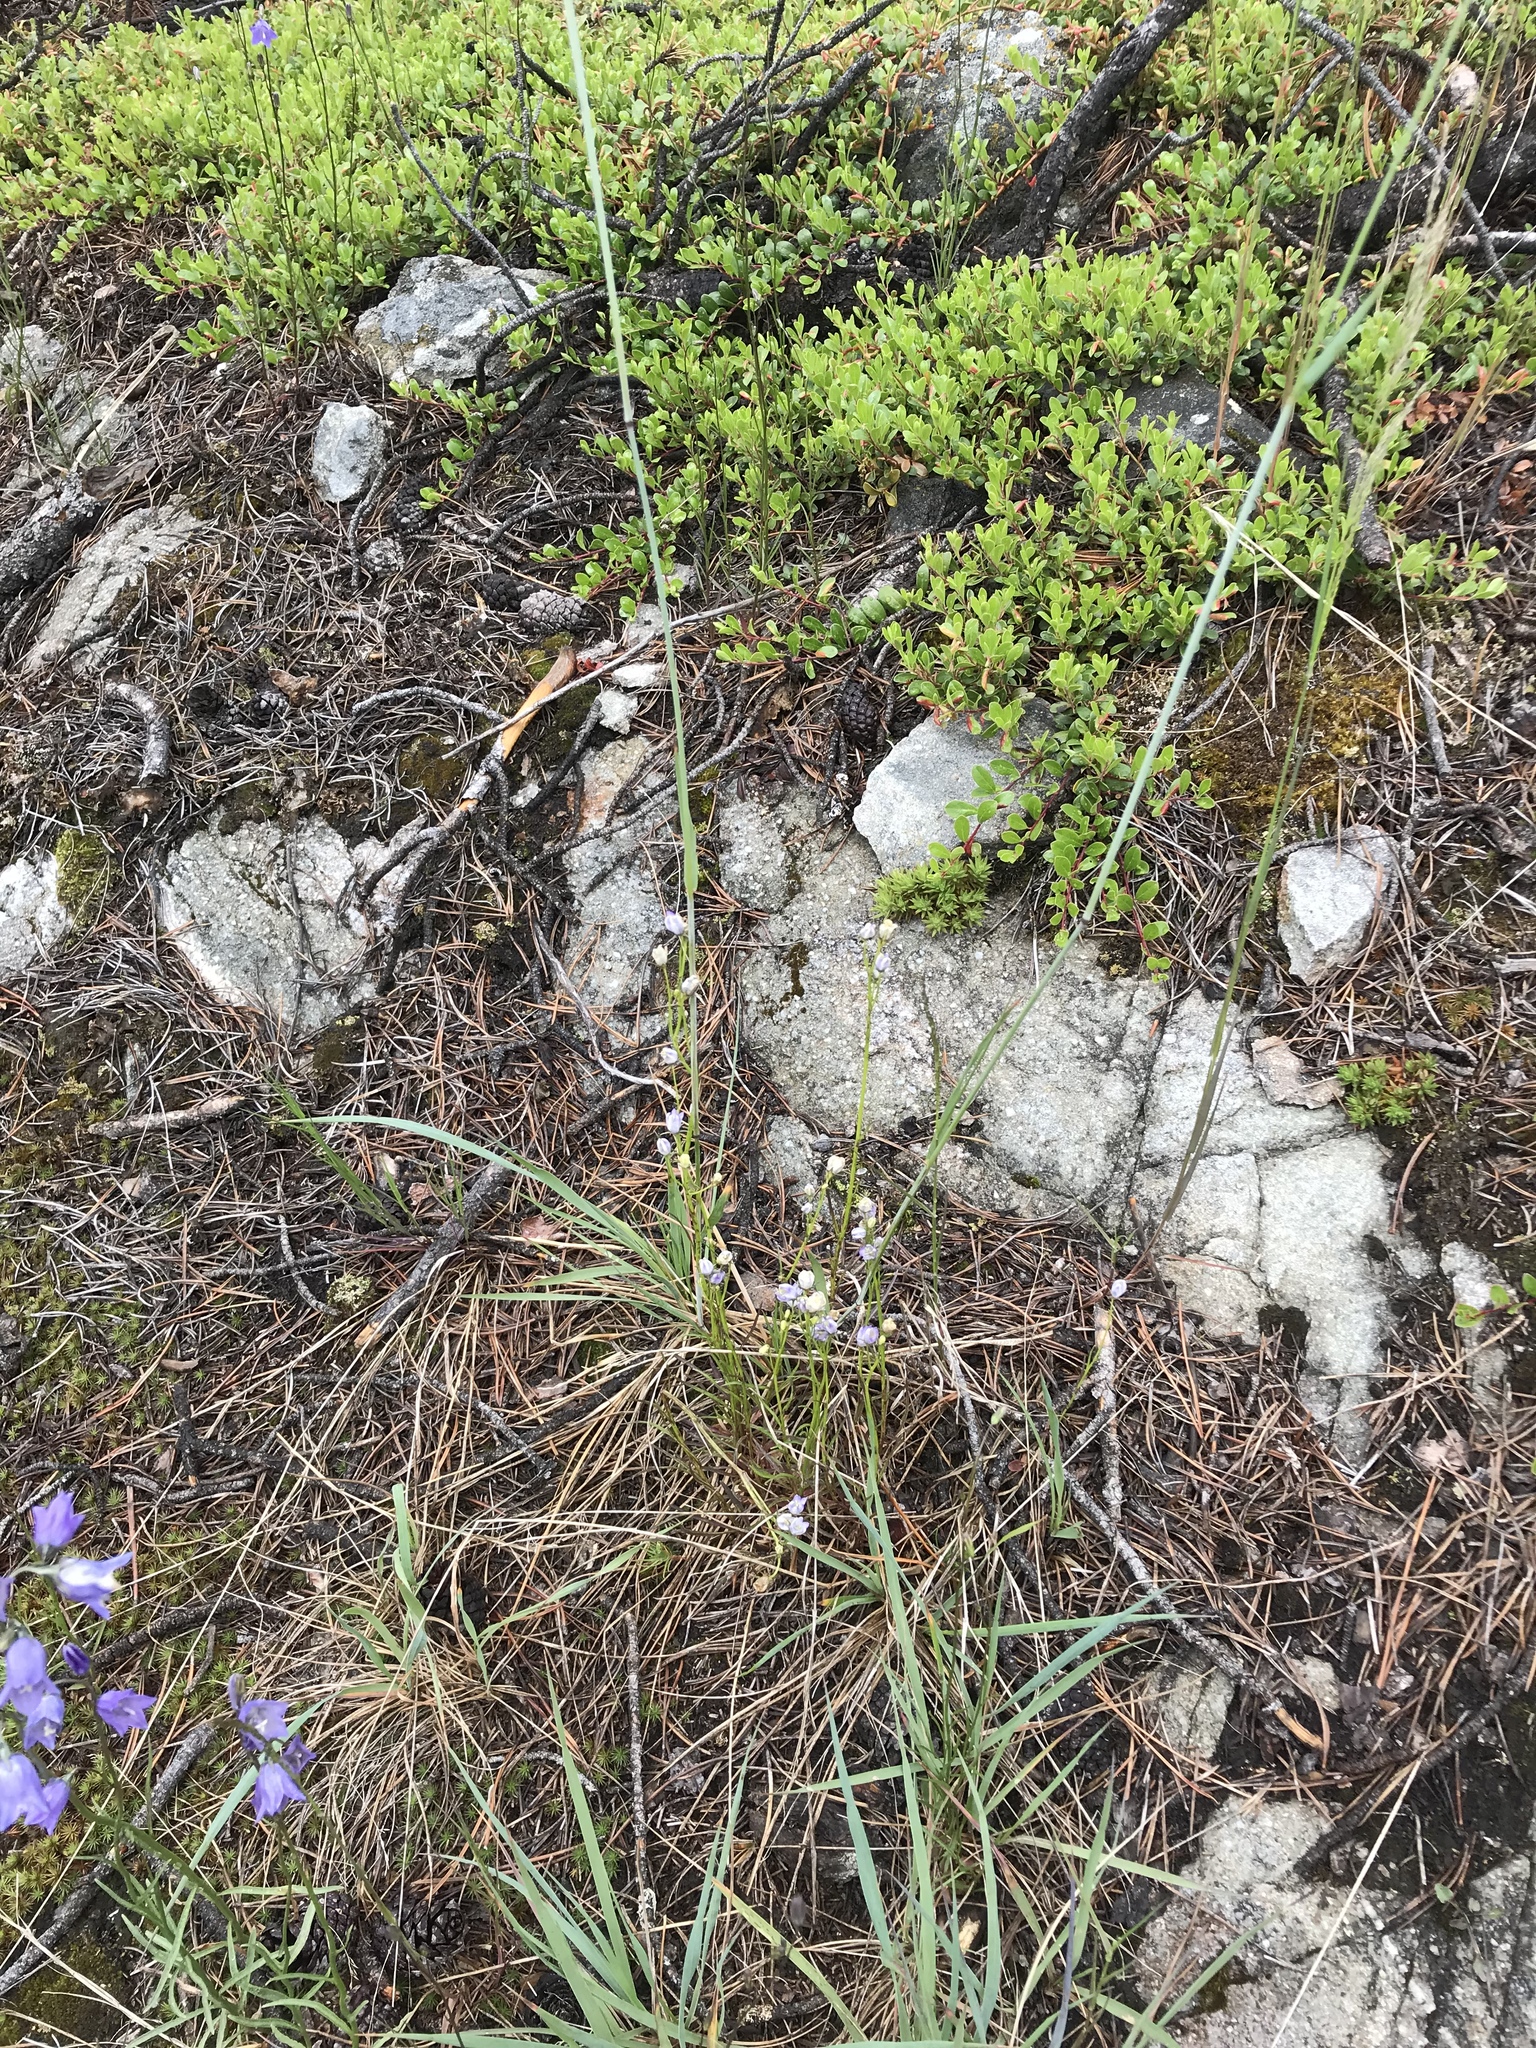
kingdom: Plantae
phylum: Tracheophyta
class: Magnoliopsida
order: Asterales
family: Campanulaceae
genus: Campanula
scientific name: Campanula alaskana
